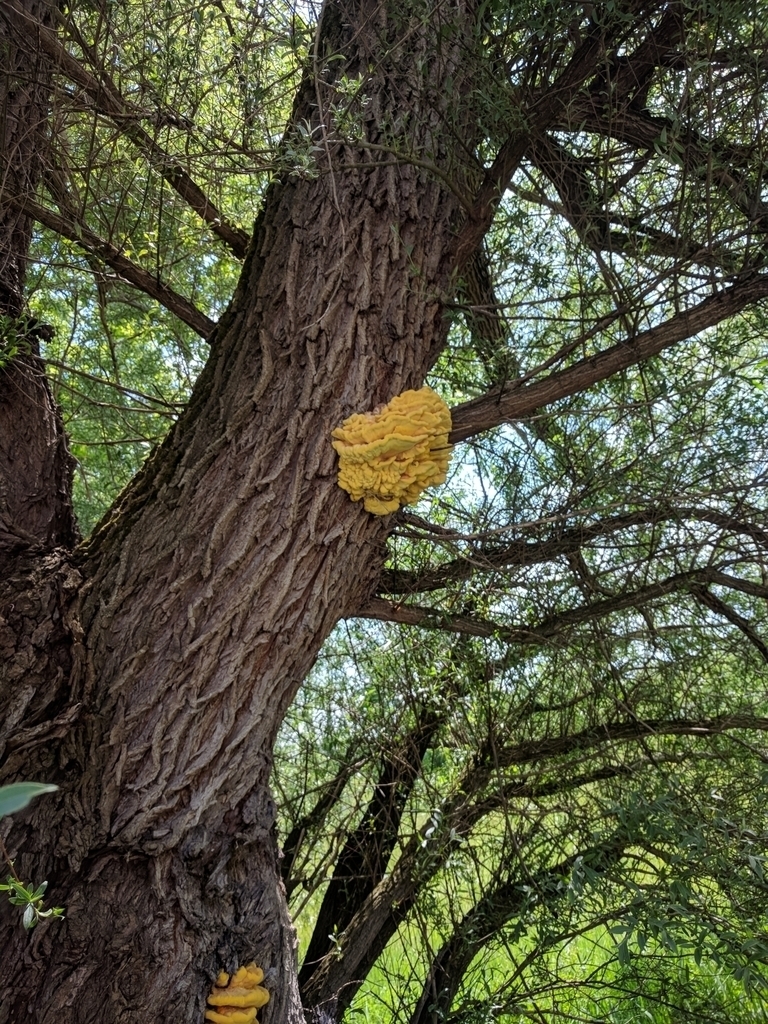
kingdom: Fungi
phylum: Basidiomycota
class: Agaricomycetes
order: Polyporales
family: Laetiporaceae
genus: Laetiporus
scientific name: Laetiporus sulphureus
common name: Chicken of the woods
